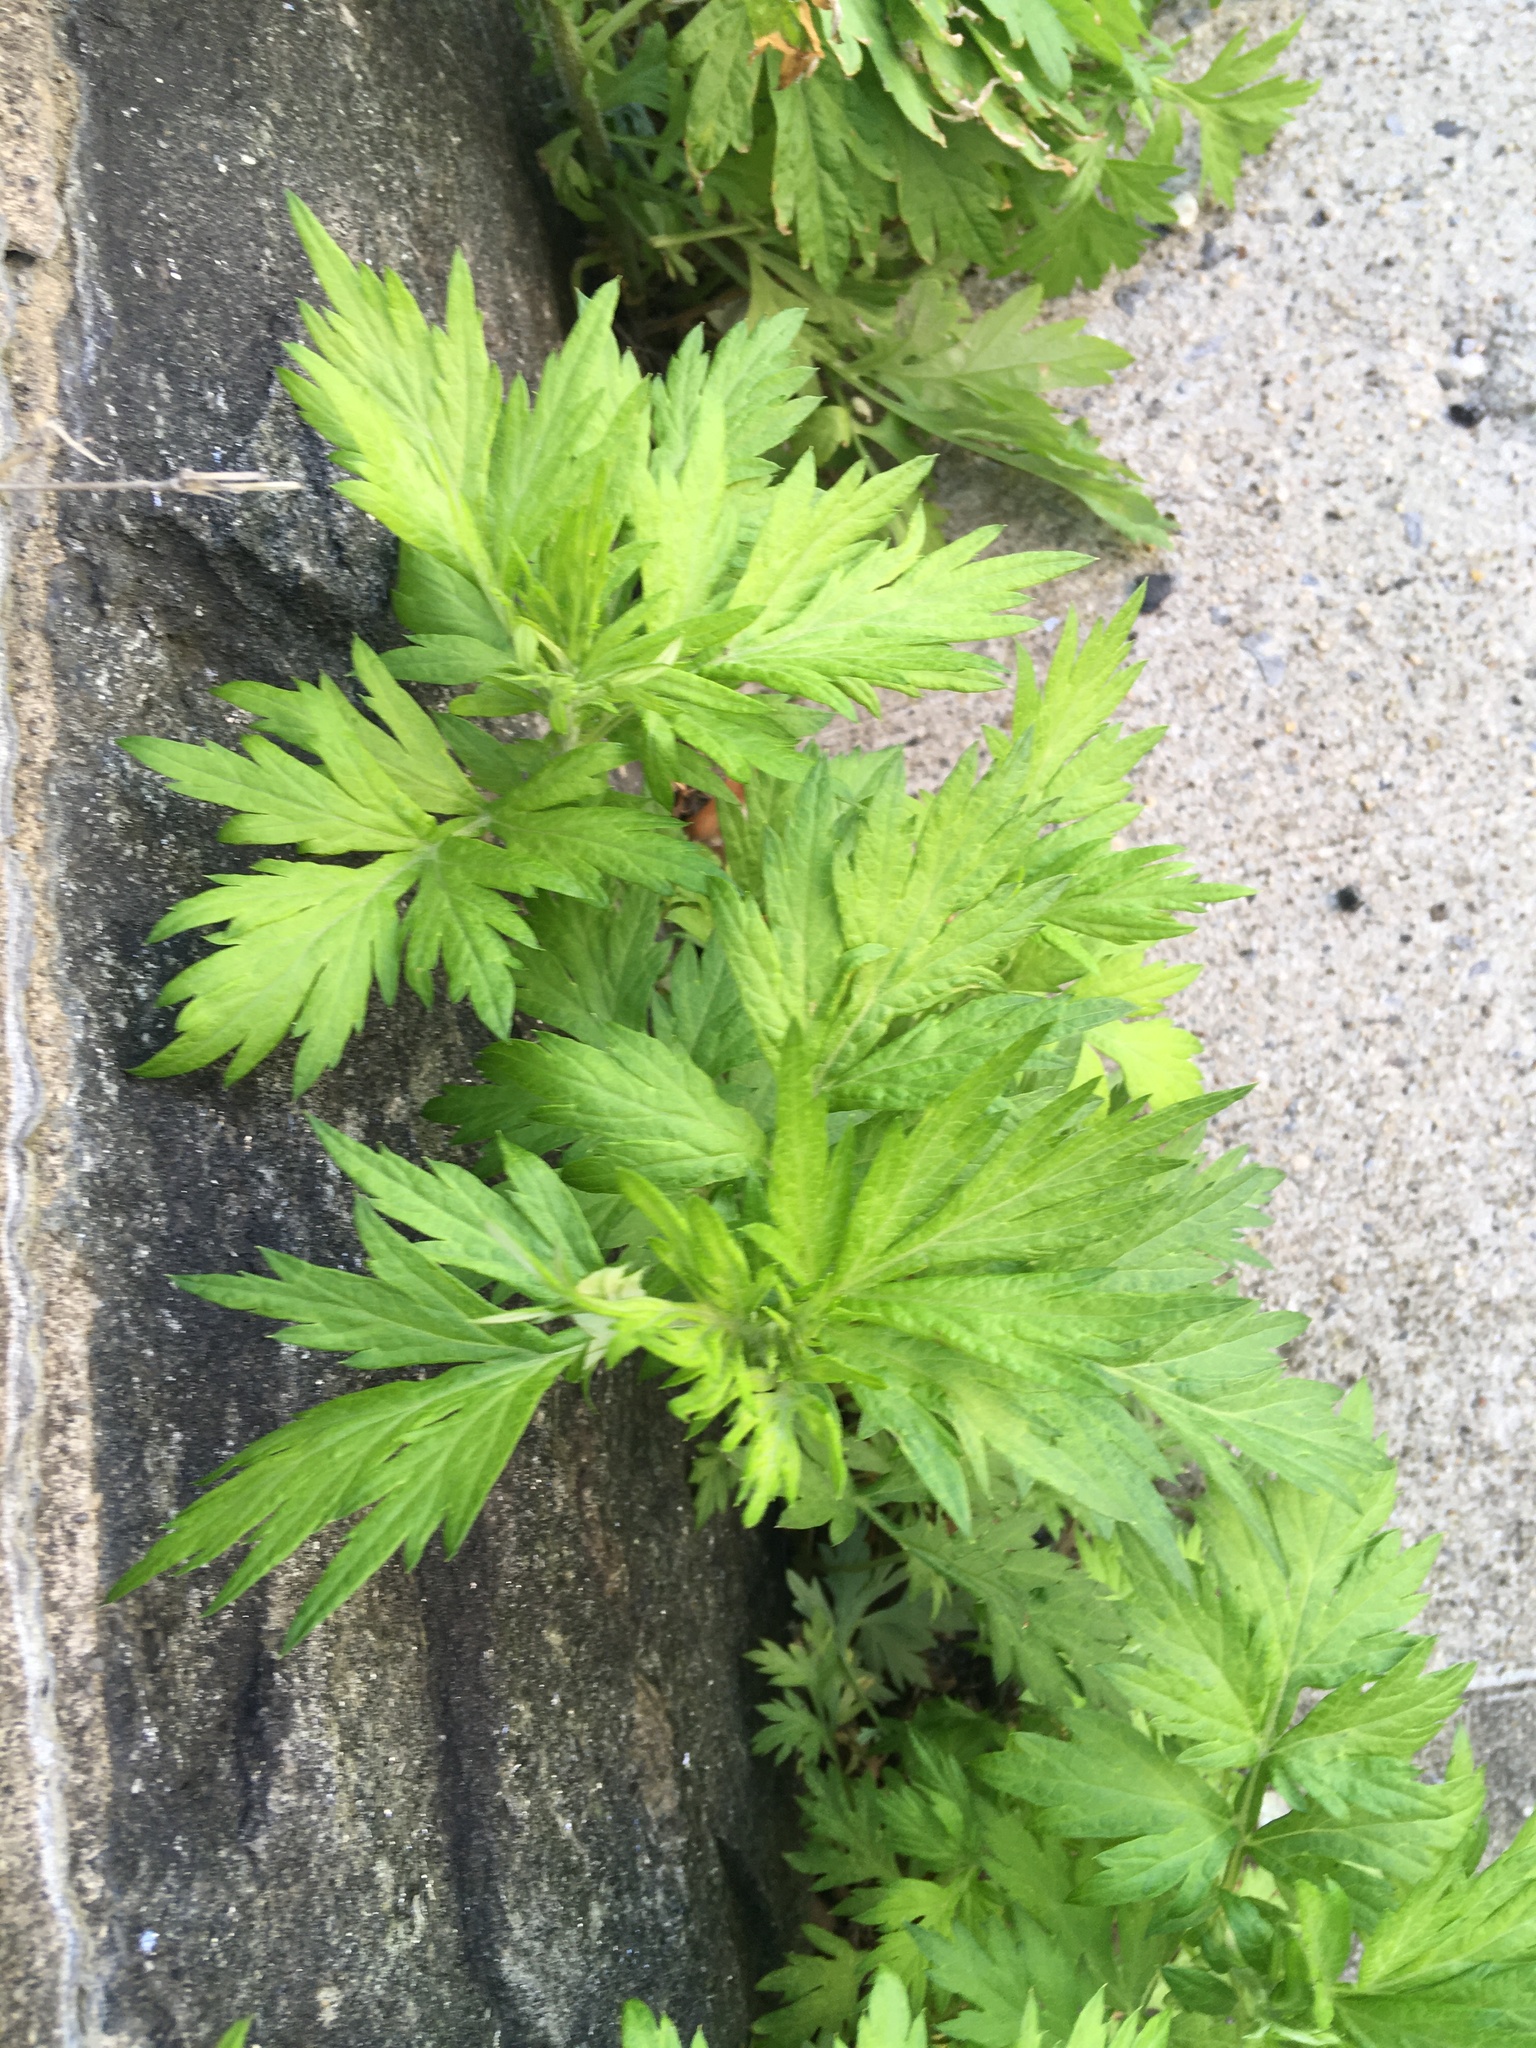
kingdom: Plantae
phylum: Tracheophyta
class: Magnoliopsida
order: Asterales
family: Asteraceae
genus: Artemisia
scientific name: Artemisia vulgaris
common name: Mugwort
